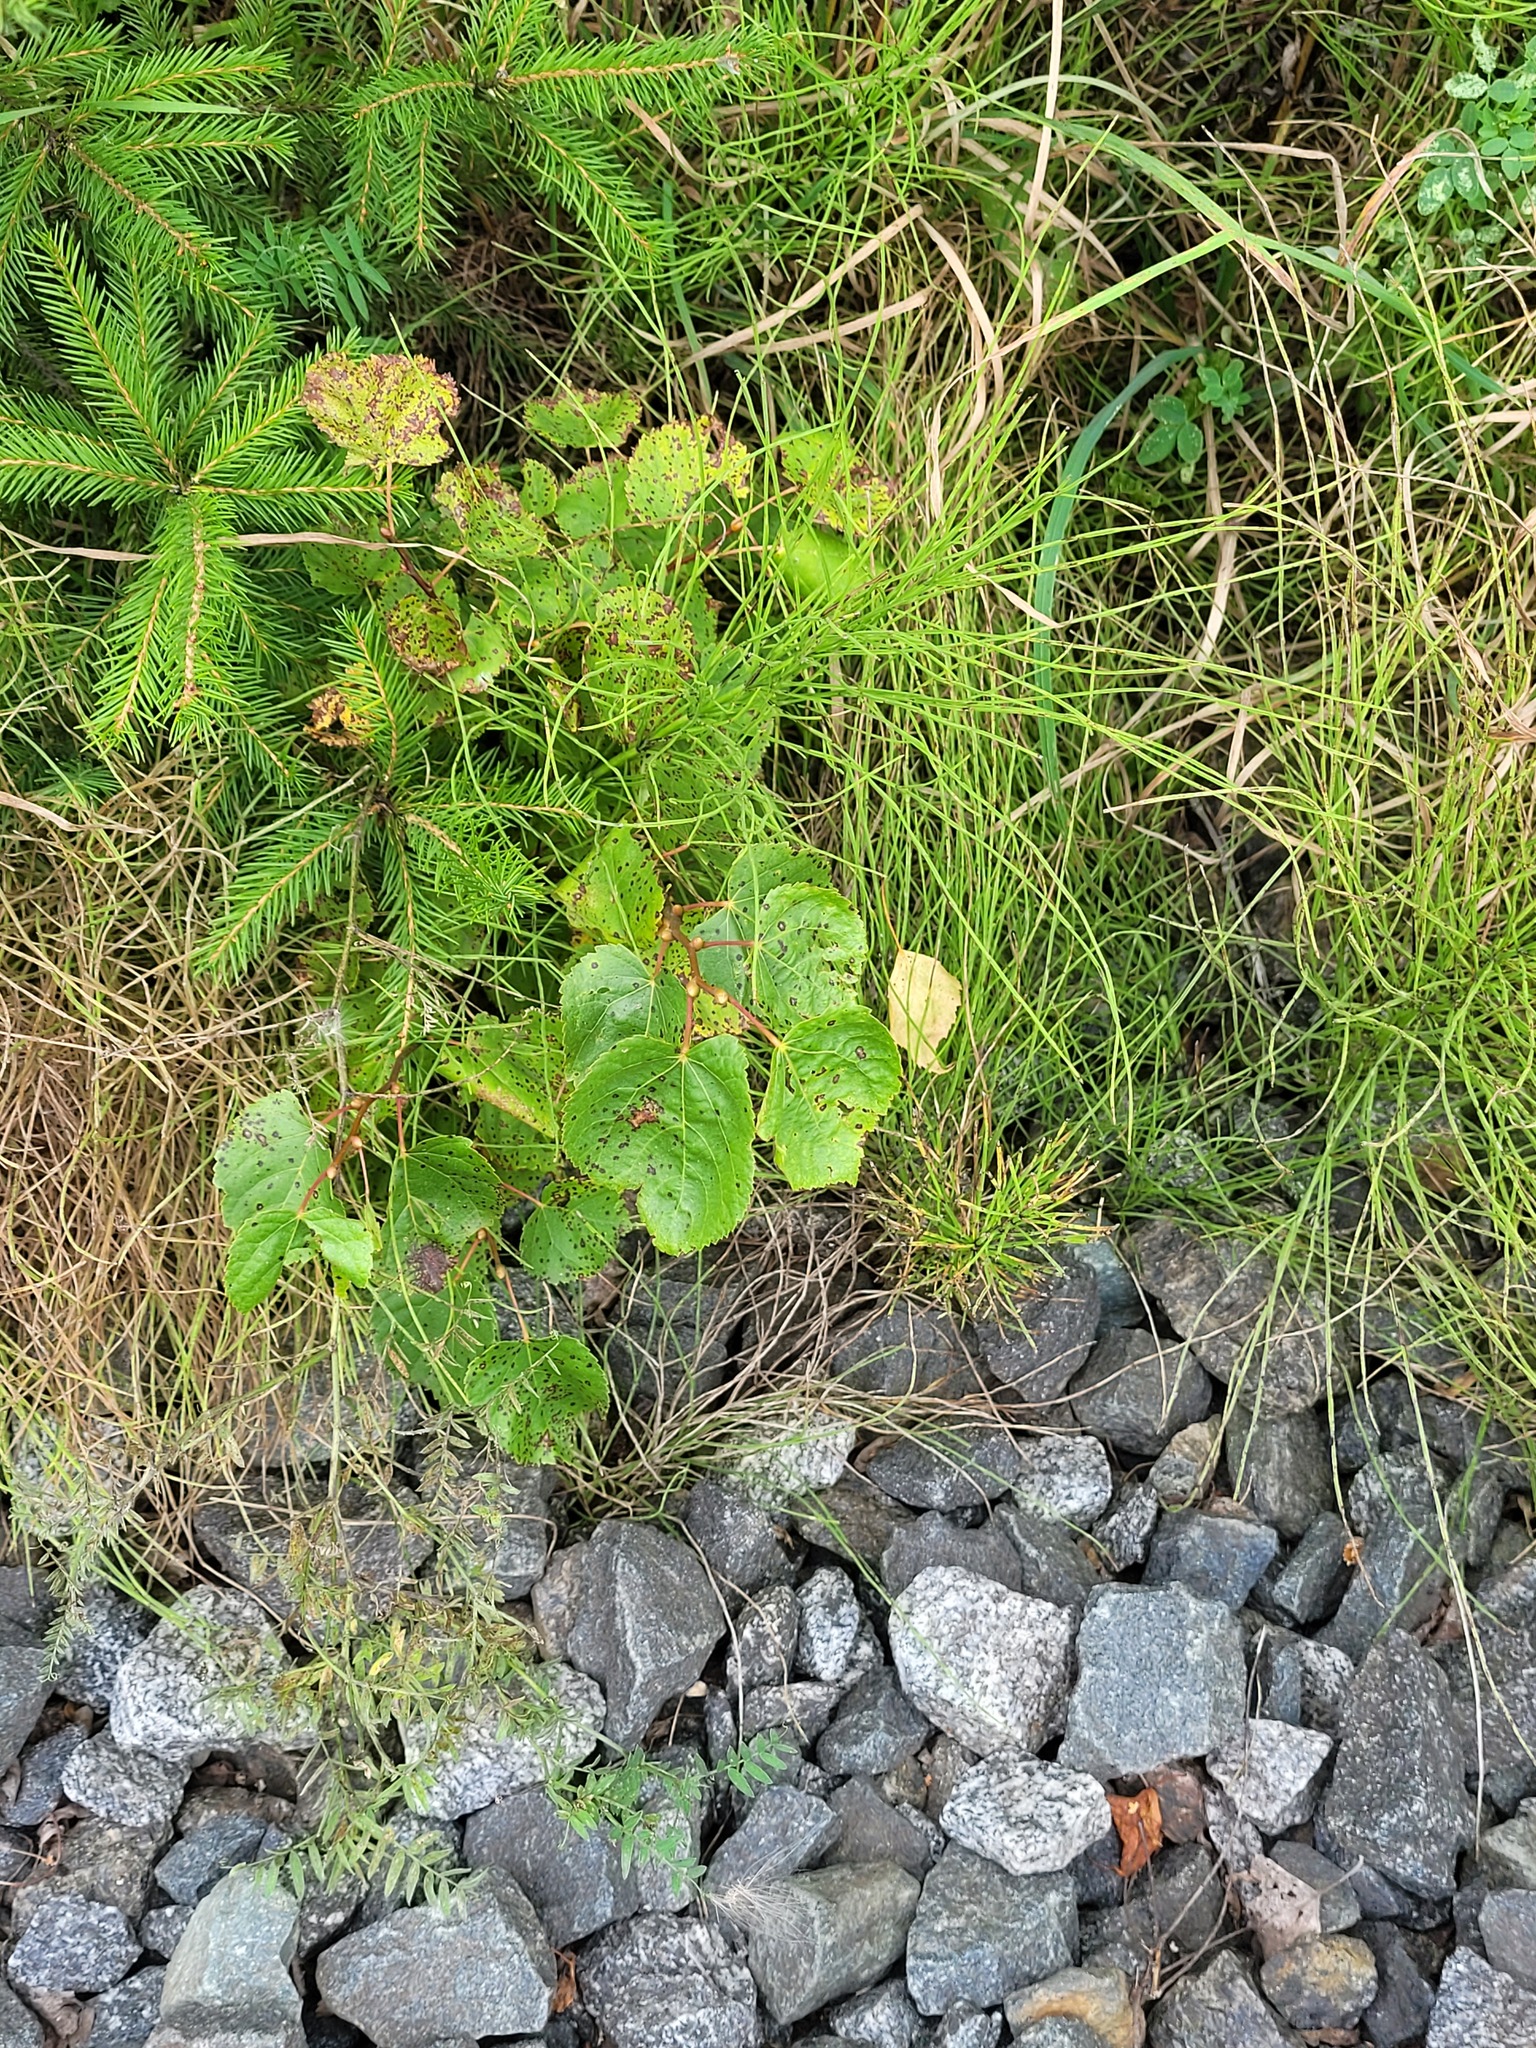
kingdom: Plantae
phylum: Tracheophyta
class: Magnoliopsida
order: Malvales
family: Malvaceae
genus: Tilia
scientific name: Tilia cordata
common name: Small-leaved lime
